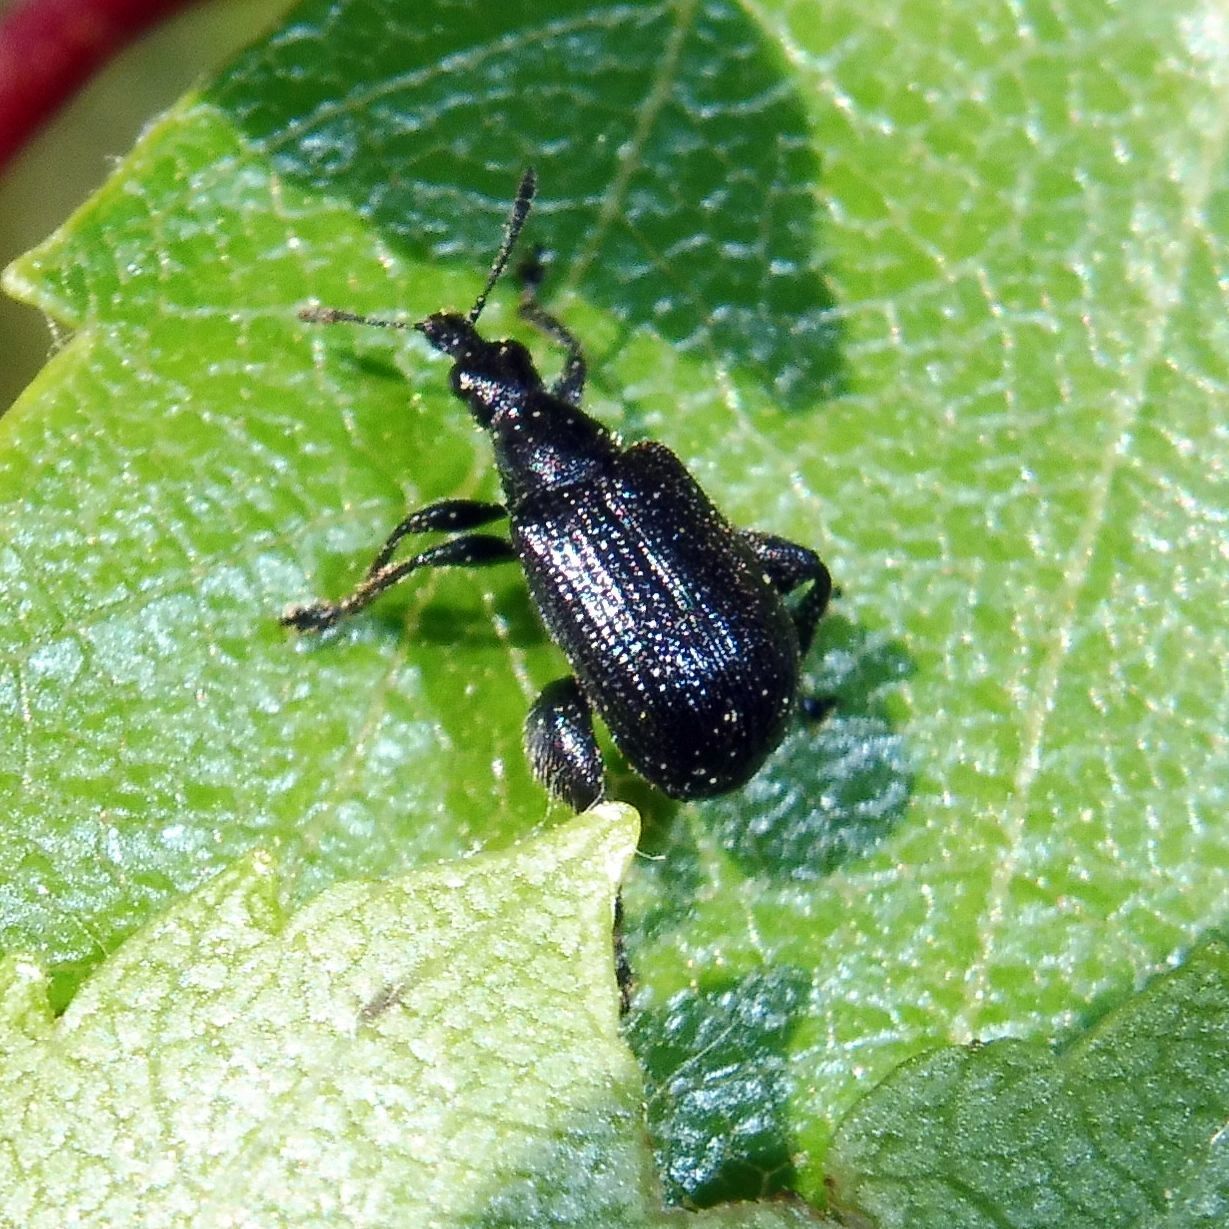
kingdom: Animalia
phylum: Arthropoda
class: Insecta
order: Coleoptera
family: Attelabidae
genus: Deporaus
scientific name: Deporaus betulae
